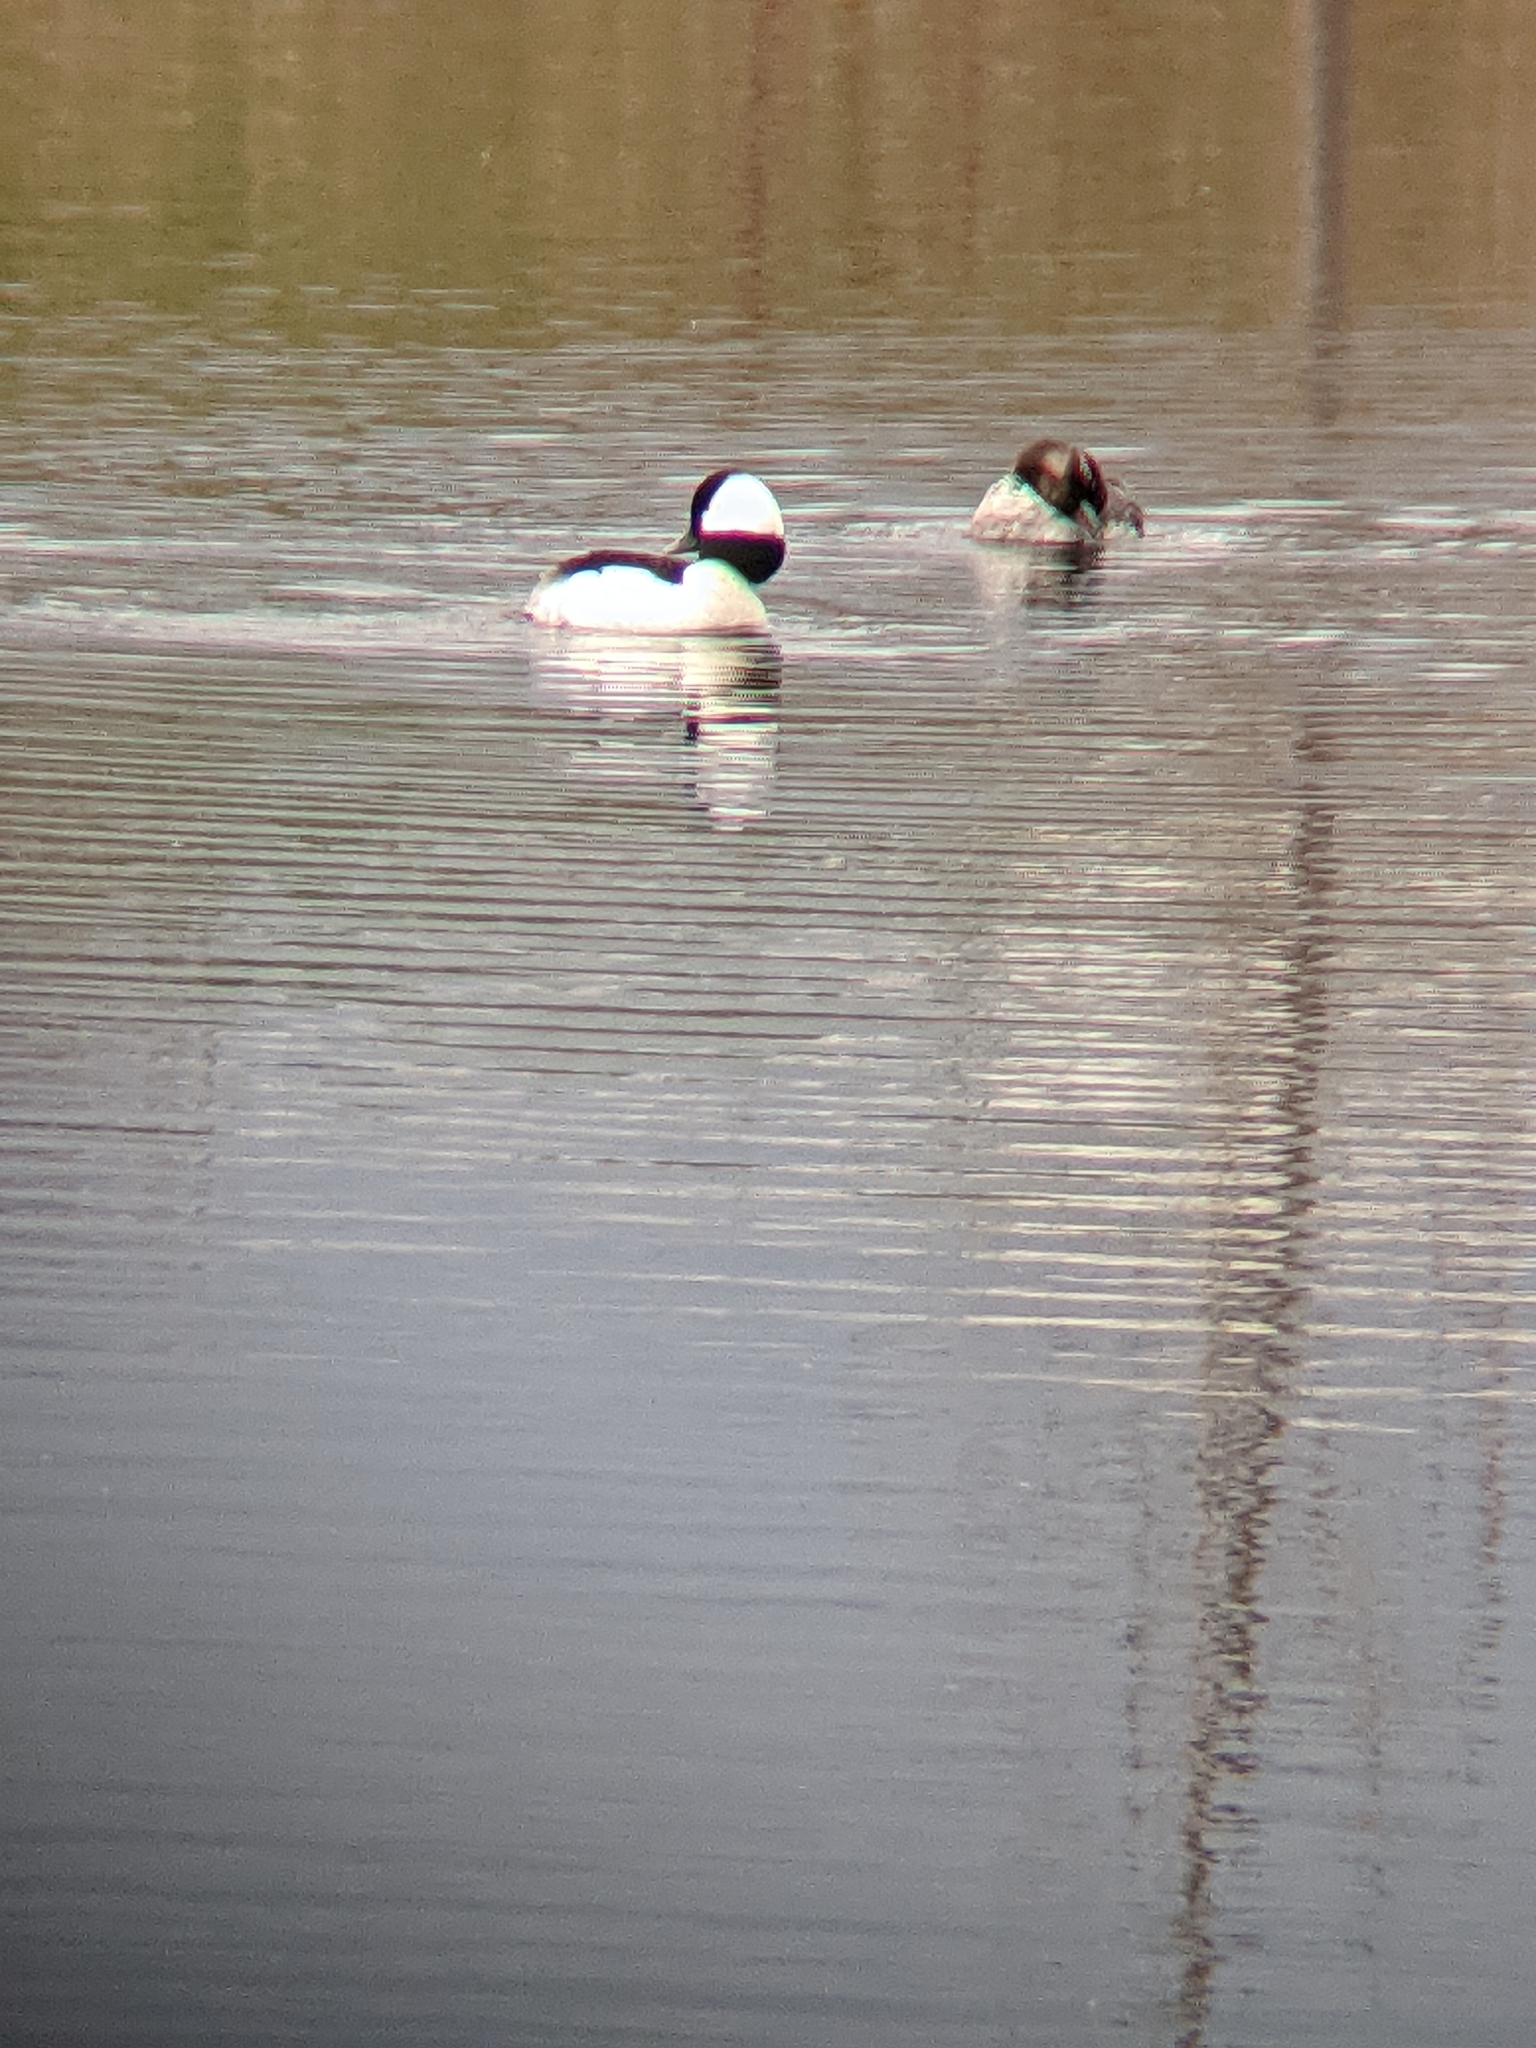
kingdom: Animalia
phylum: Chordata
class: Aves
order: Anseriformes
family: Anatidae
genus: Bucephala
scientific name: Bucephala albeola
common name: Bufflehead
